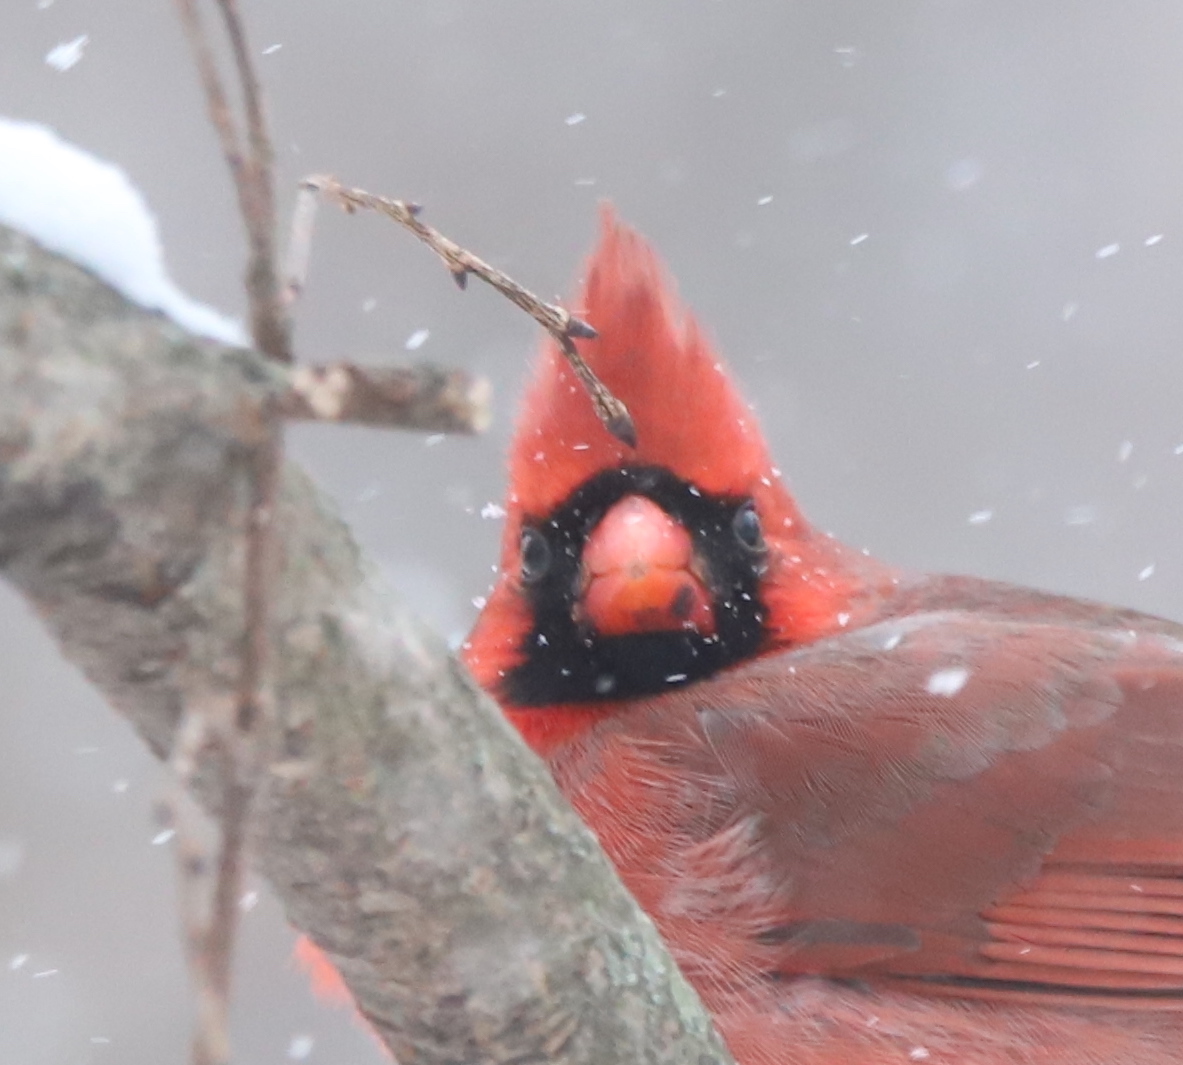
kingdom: Animalia
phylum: Chordata
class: Aves
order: Passeriformes
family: Cardinalidae
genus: Cardinalis
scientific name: Cardinalis cardinalis
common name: Northern cardinal
